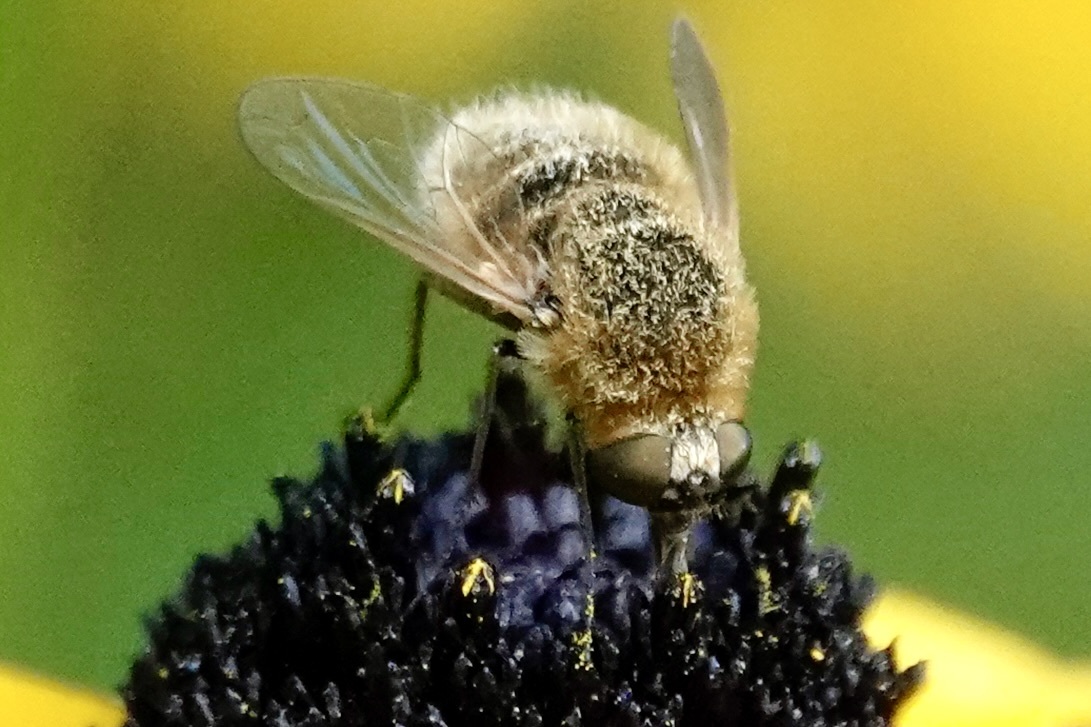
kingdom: Animalia
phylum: Arthropoda
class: Insecta
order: Diptera
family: Bombyliidae
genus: Sparnopolius
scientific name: Sparnopolius confusus
